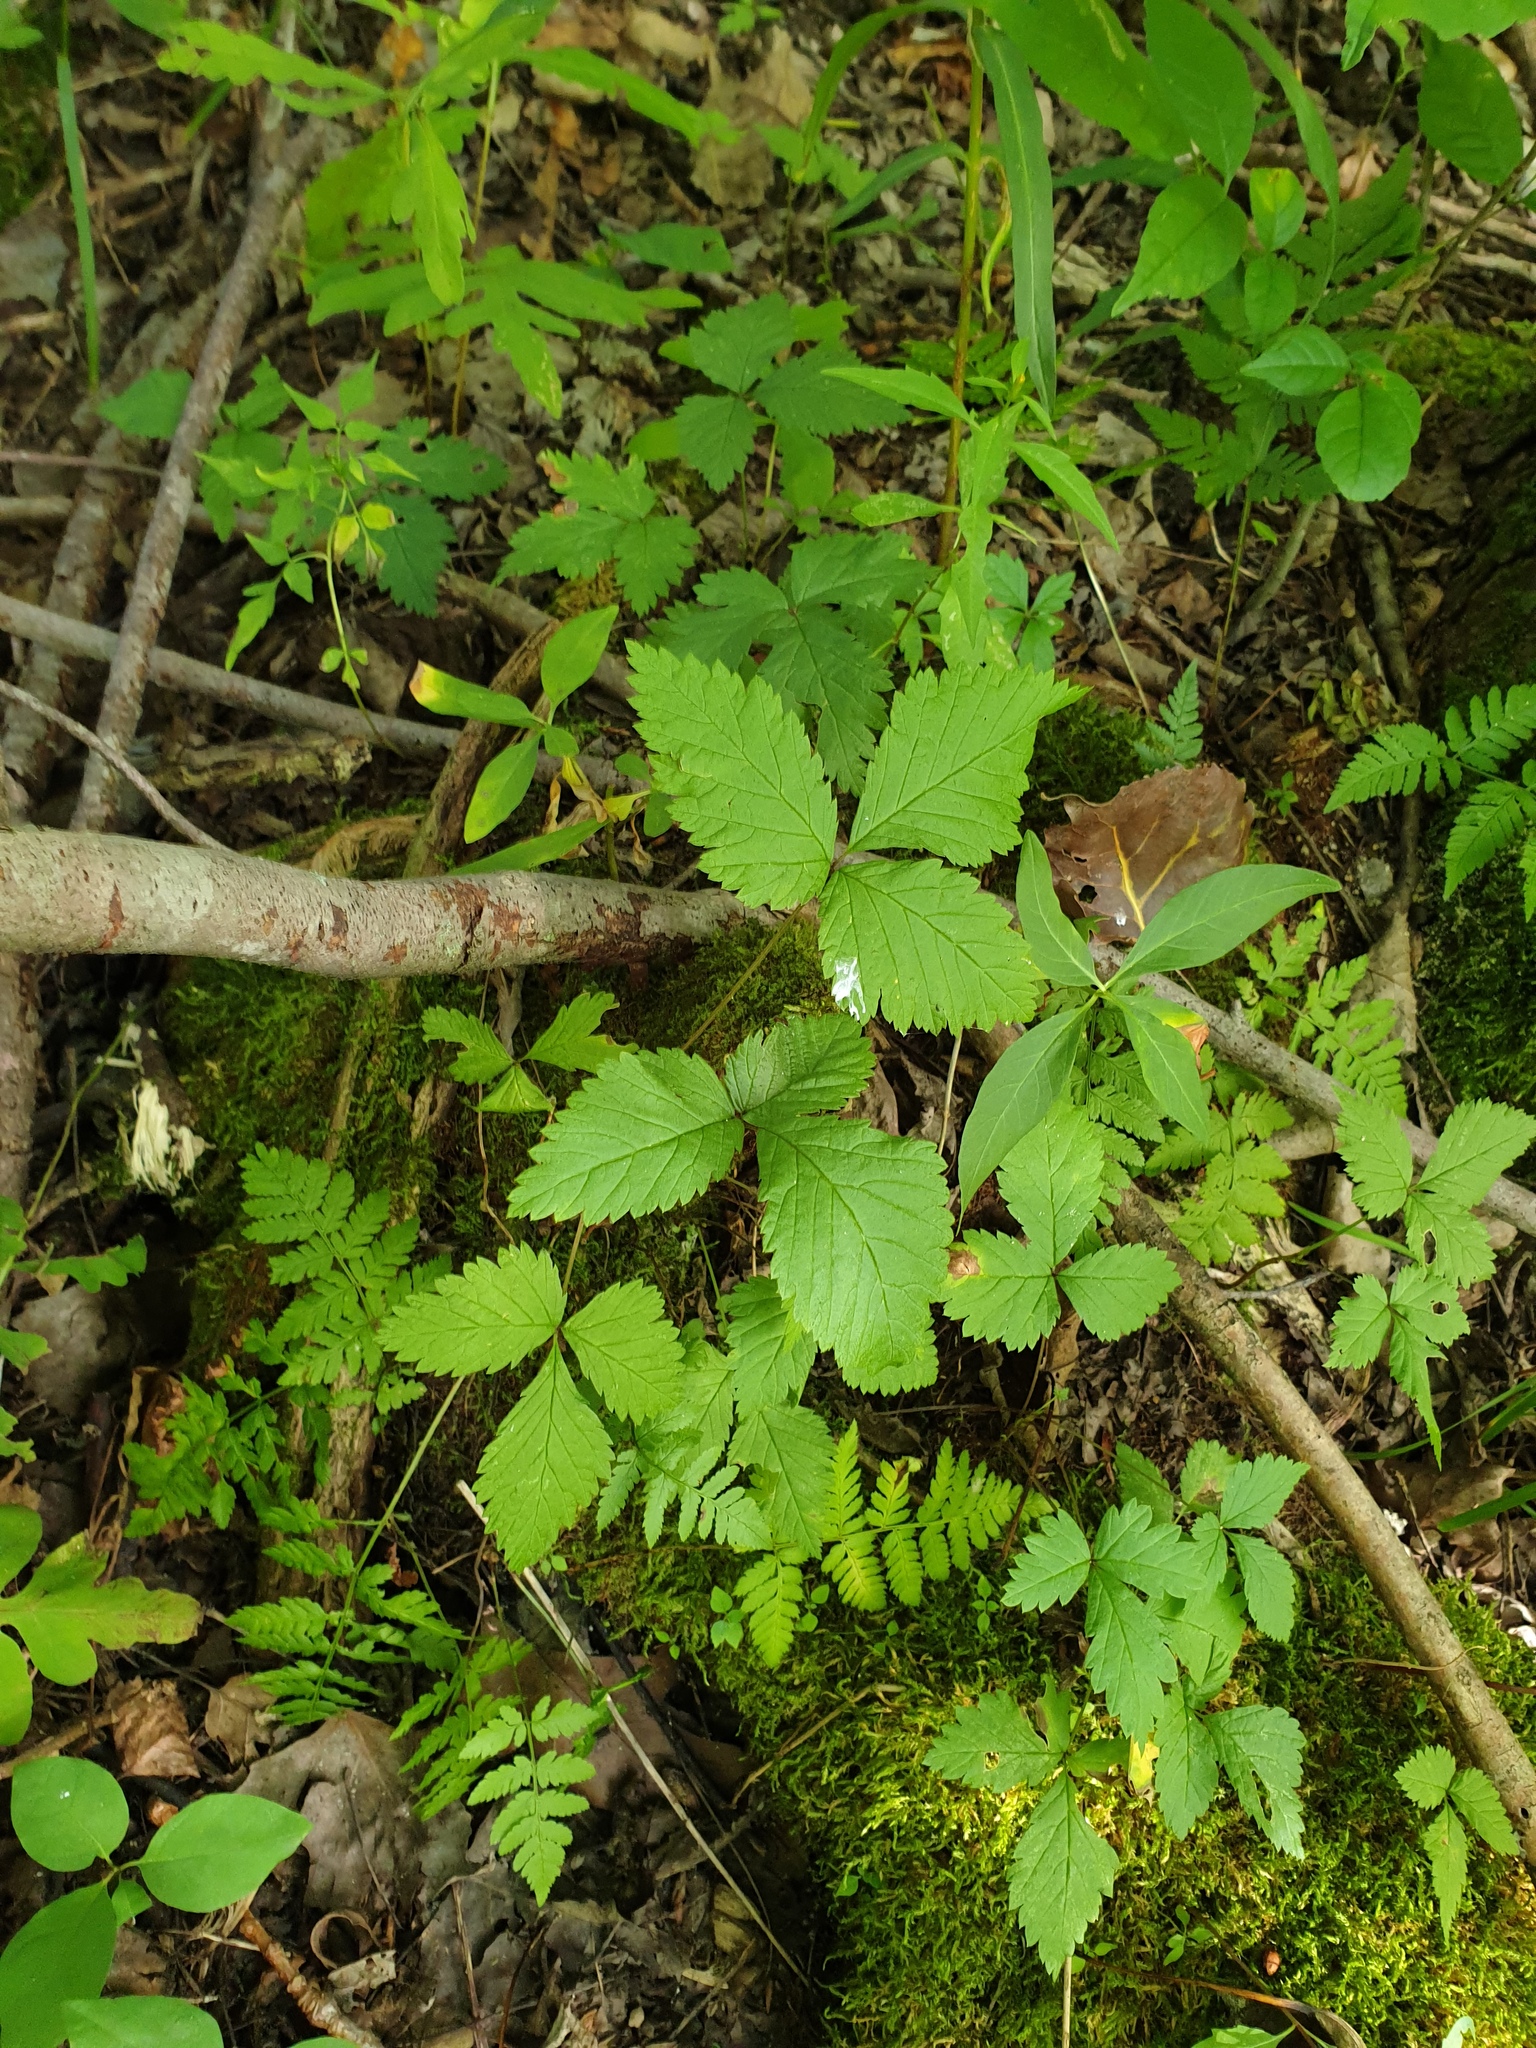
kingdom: Plantae
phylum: Tracheophyta
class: Magnoliopsida
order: Rosales
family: Rosaceae
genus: Rubus
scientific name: Rubus pubescens
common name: Dwarf raspberry
